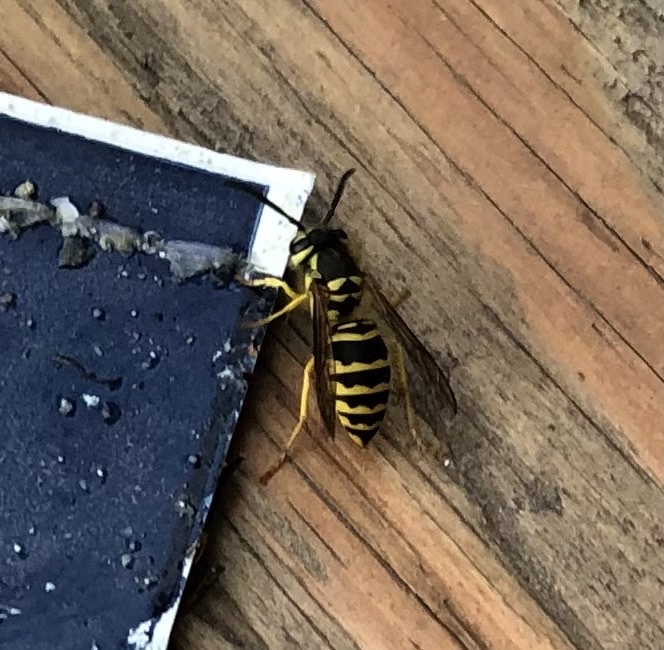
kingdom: Animalia
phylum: Arthropoda
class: Insecta
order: Hymenoptera
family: Vespidae
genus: Vespula
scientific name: Vespula maculifrons
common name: Eastern yellowjacket
